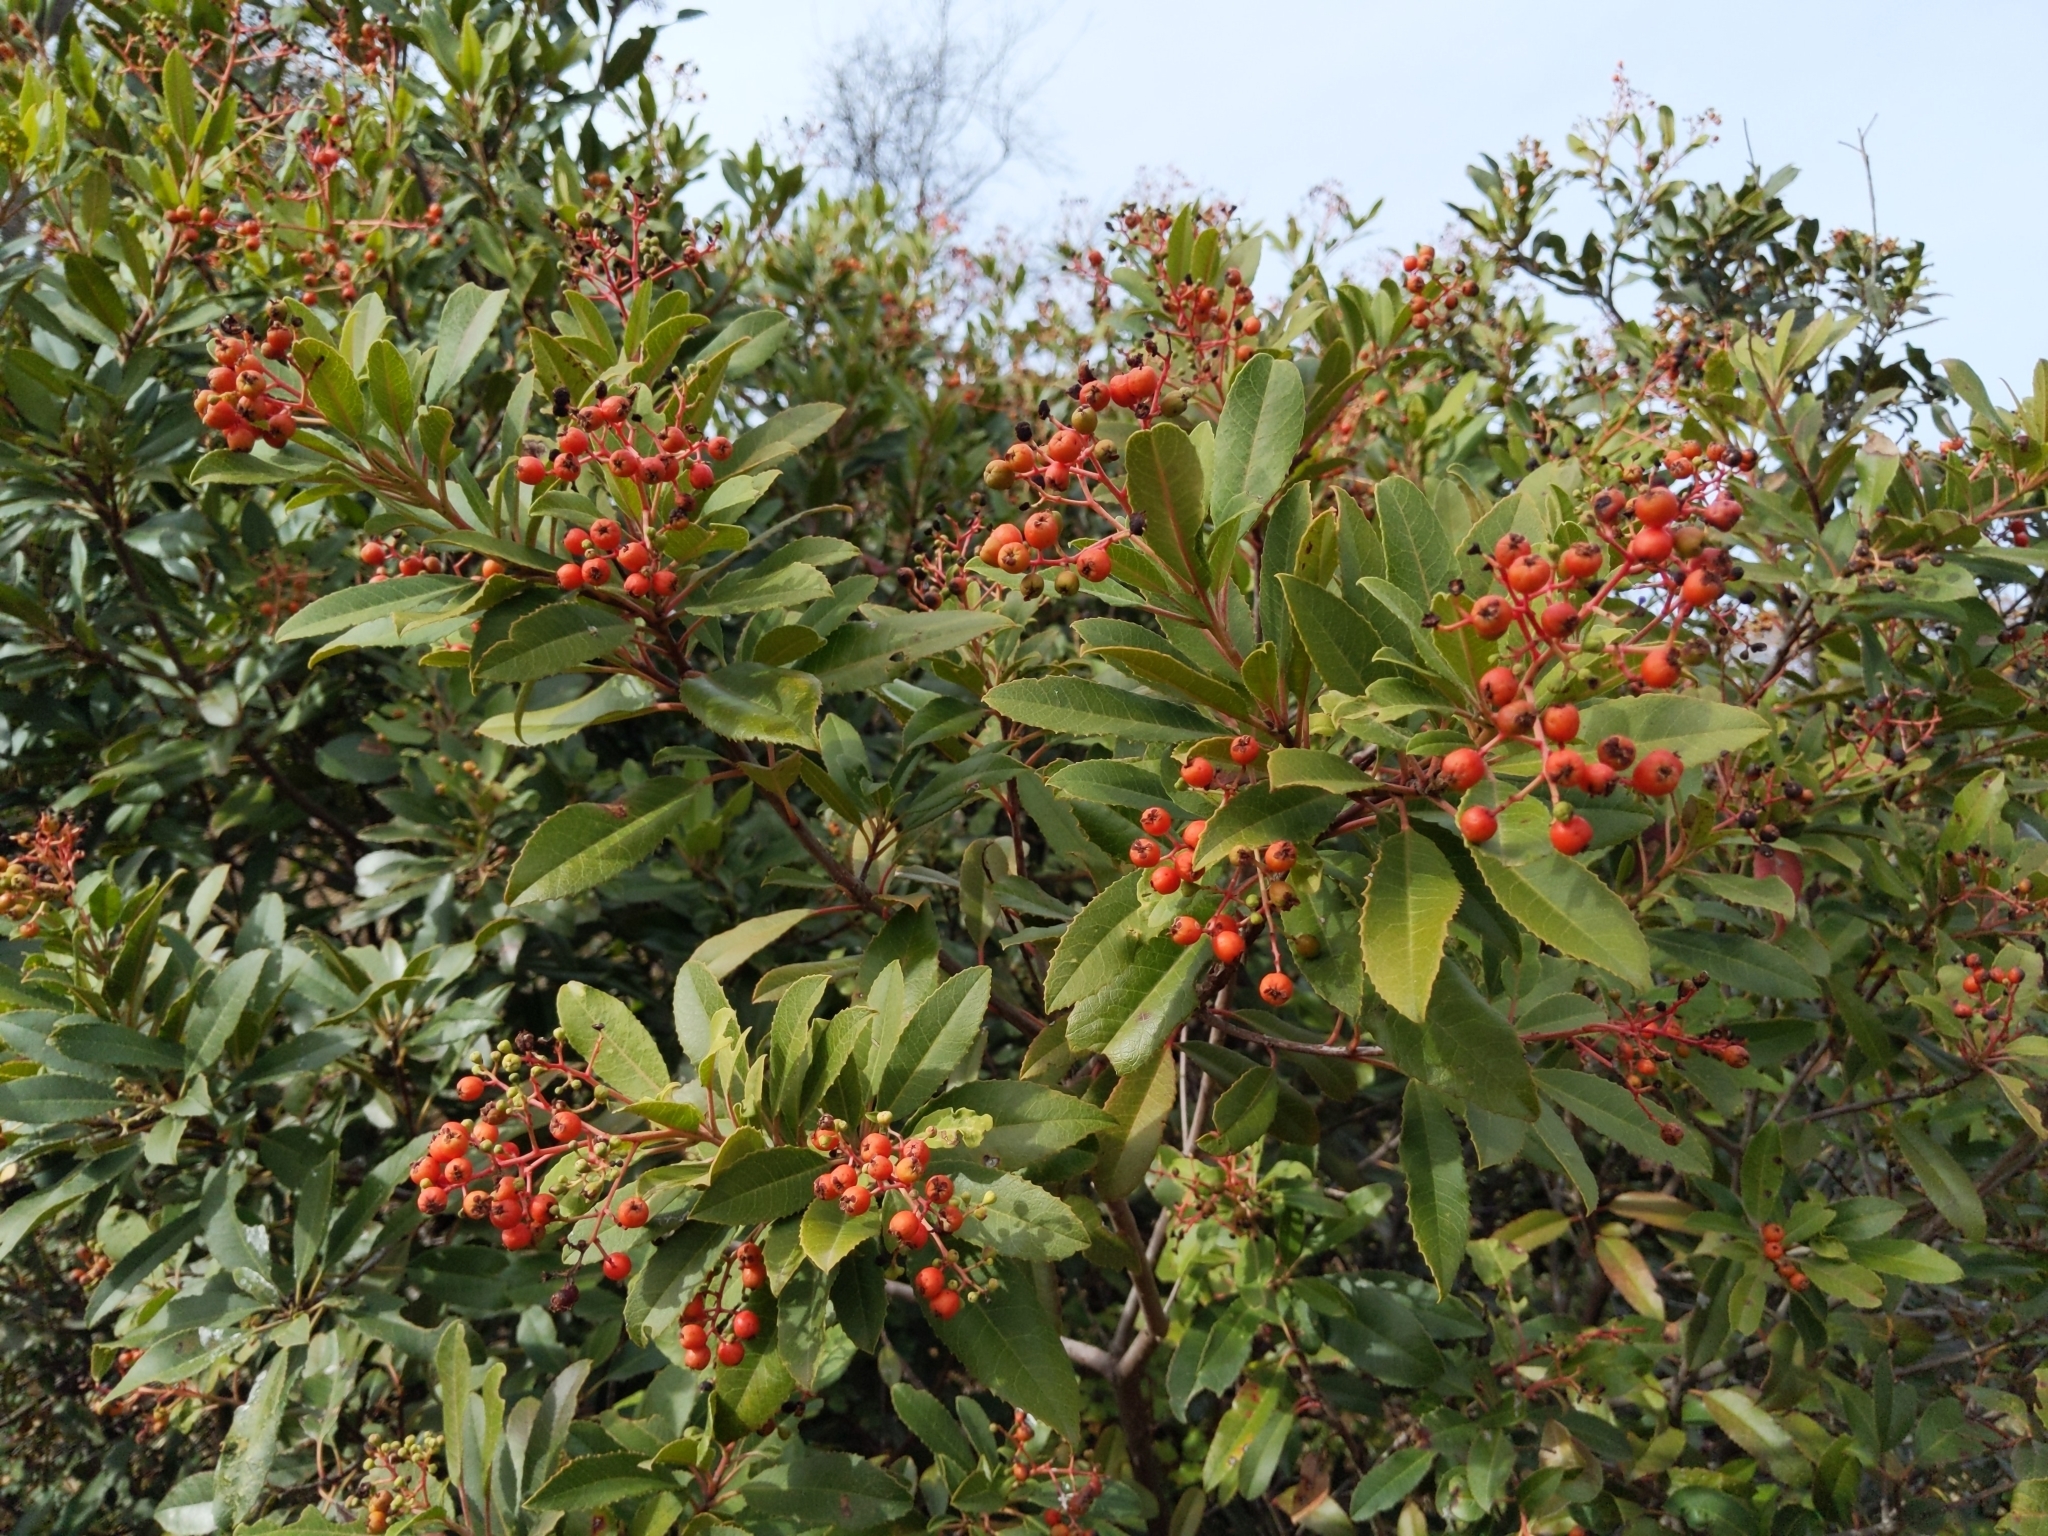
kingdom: Plantae
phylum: Tracheophyta
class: Magnoliopsida
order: Rosales
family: Rosaceae
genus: Heteromeles
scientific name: Heteromeles arbutifolia
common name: California-holly
